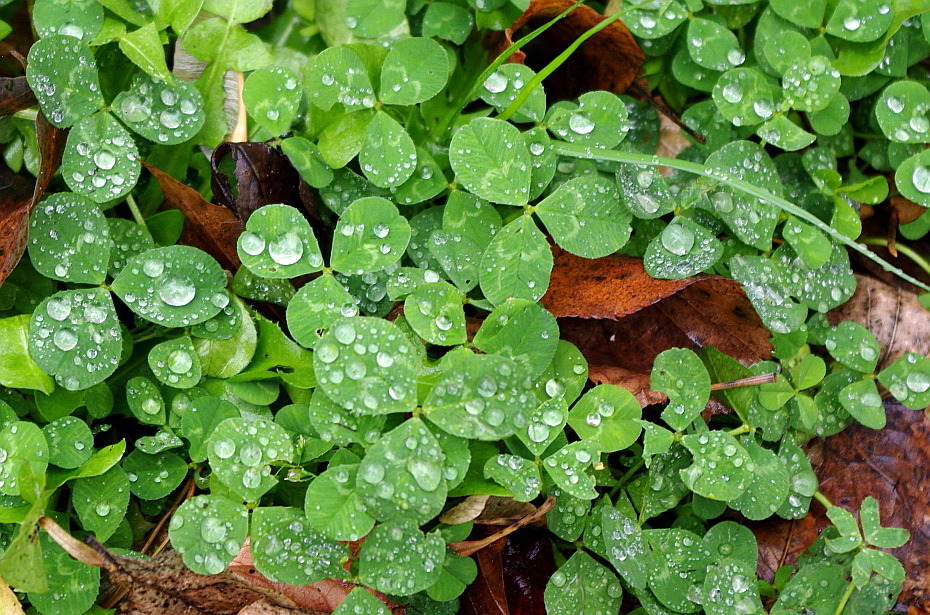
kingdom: Plantae
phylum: Tracheophyta
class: Magnoliopsida
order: Fabales
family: Fabaceae
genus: Trifolium
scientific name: Trifolium repens
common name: White clover
